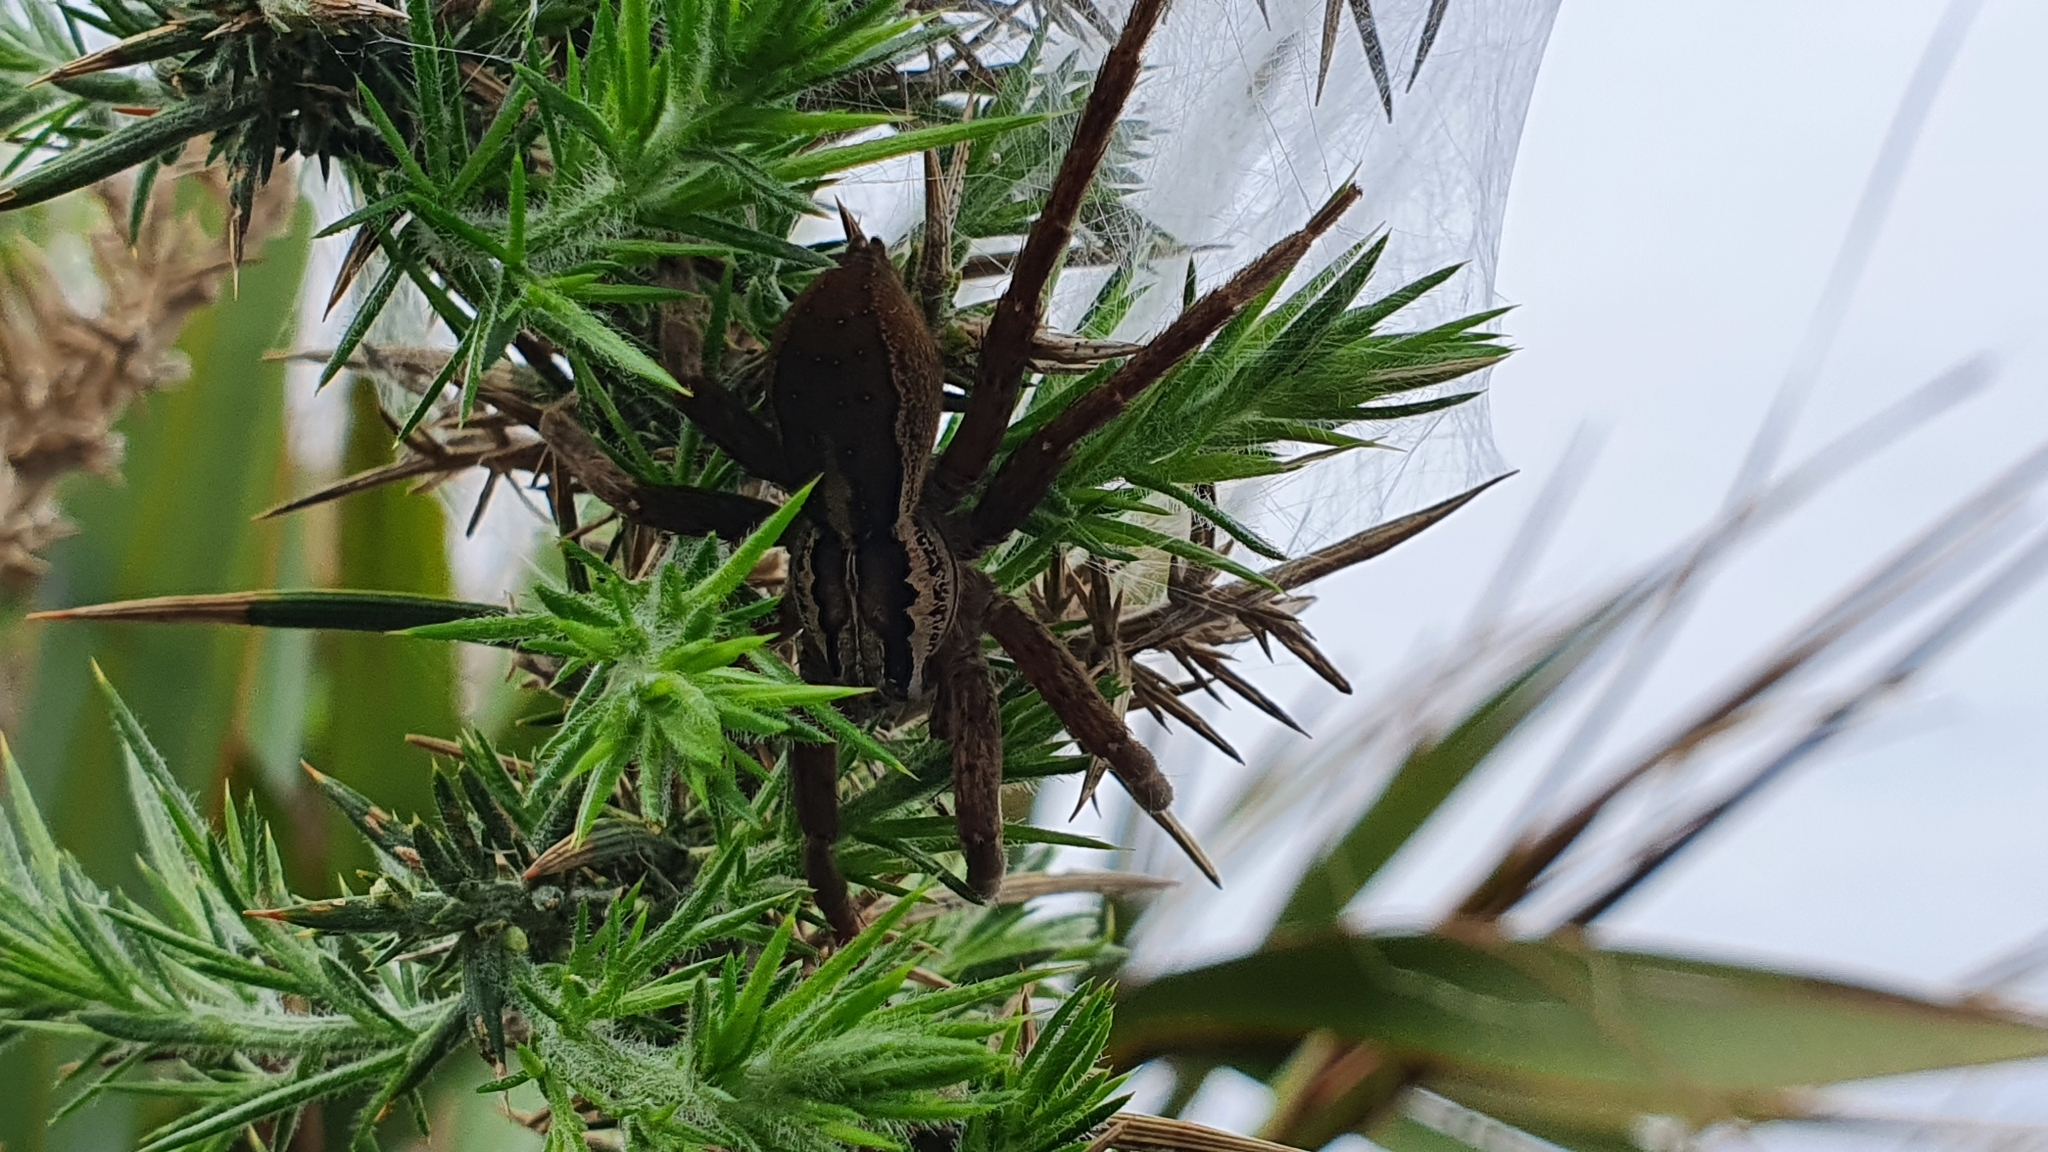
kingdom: Animalia
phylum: Arthropoda
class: Arachnida
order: Araneae
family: Pisauridae
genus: Dolomedes
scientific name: Dolomedes minor
